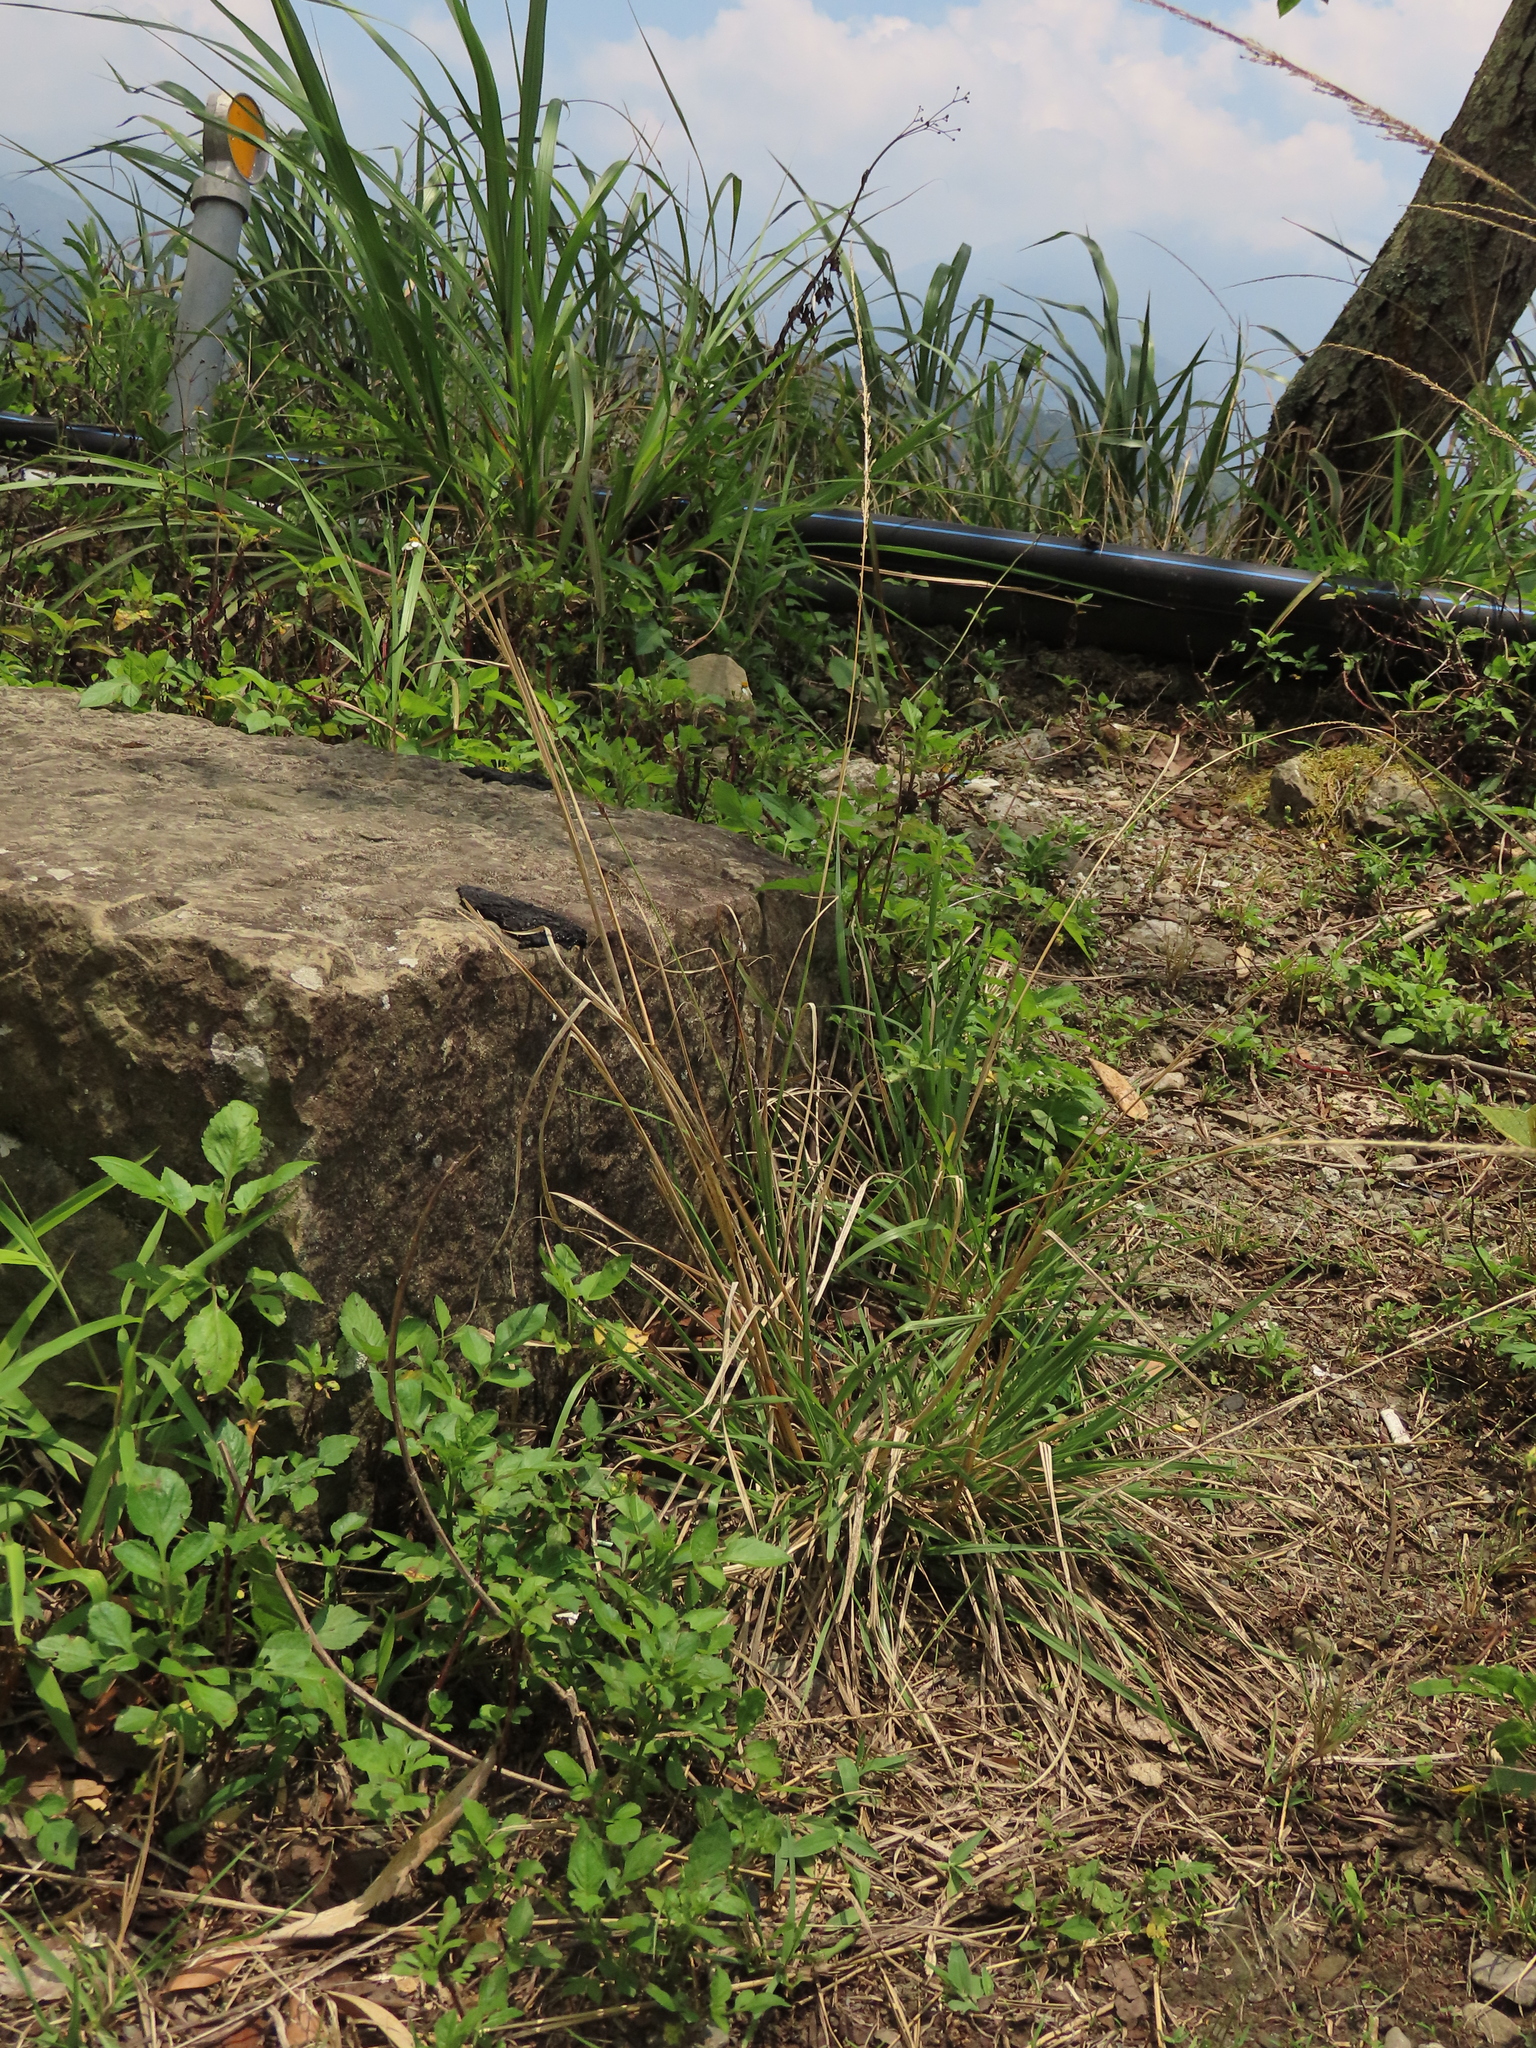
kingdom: Plantae
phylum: Tracheophyta
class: Liliopsida
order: Poales
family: Poaceae
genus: Sporobolus
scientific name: Sporobolus indicus
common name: Smut grass
